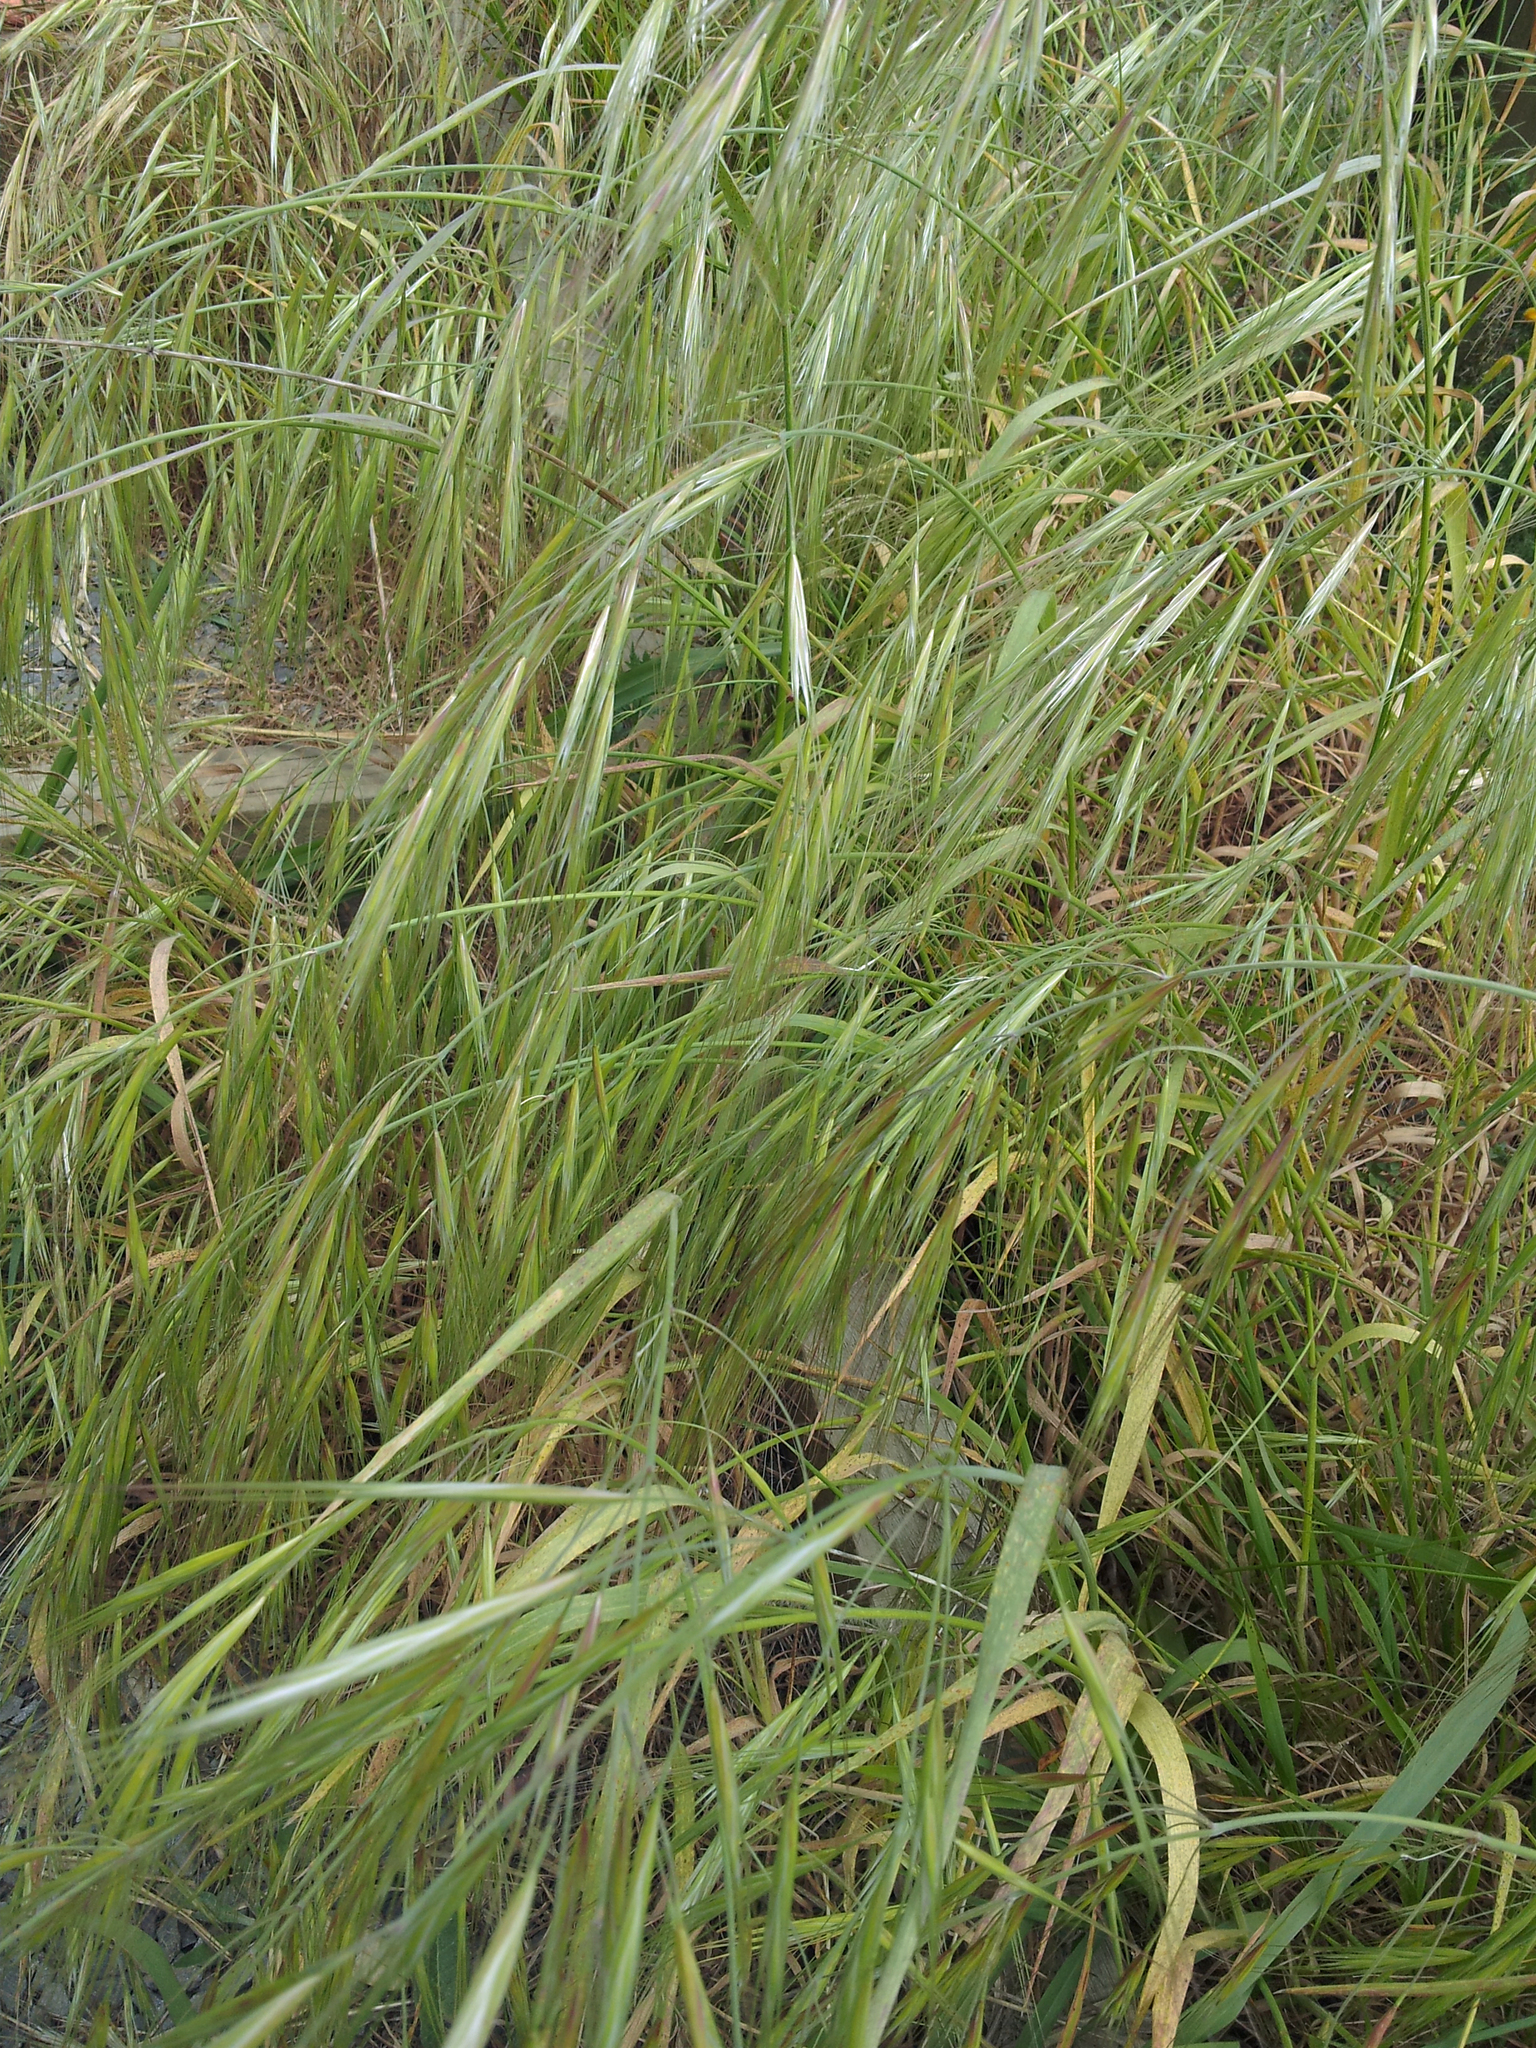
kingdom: Plantae
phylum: Tracheophyta
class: Liliopsida
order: Poales
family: Poaceae
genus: Bromus
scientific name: Bromus diandrus
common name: Ripgut brome
